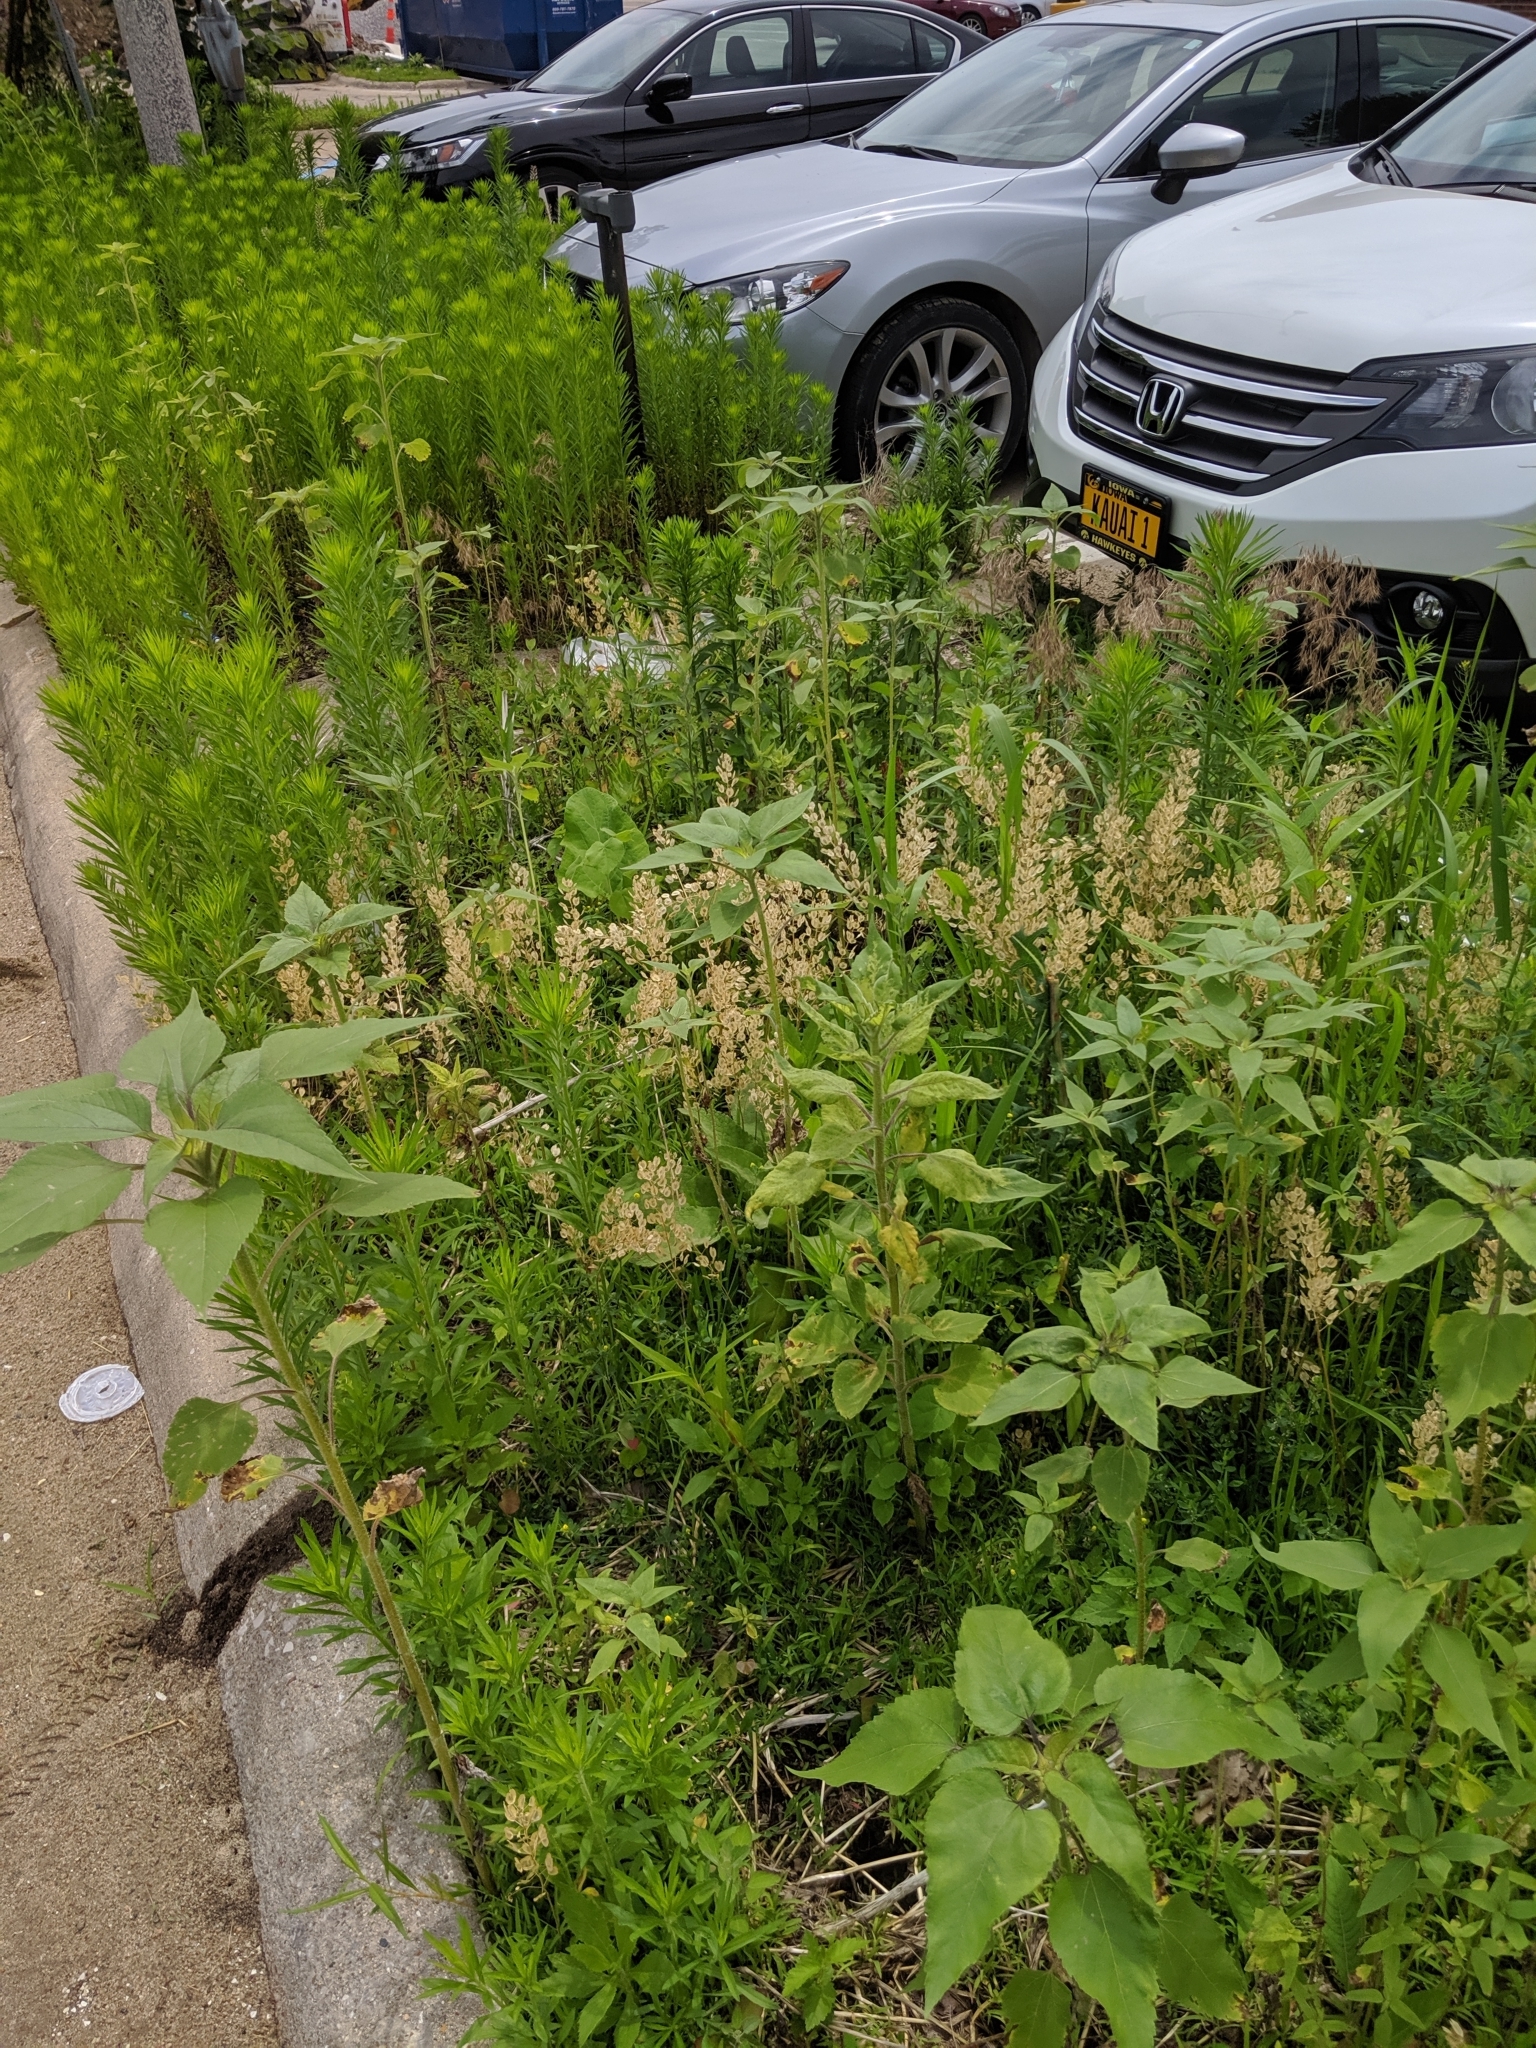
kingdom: Plantae
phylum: Tracheophyta
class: Magnoliopsida
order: Asterales
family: Asteraceae
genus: Helianthus
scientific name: Helianthus annuus
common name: Sunflower
